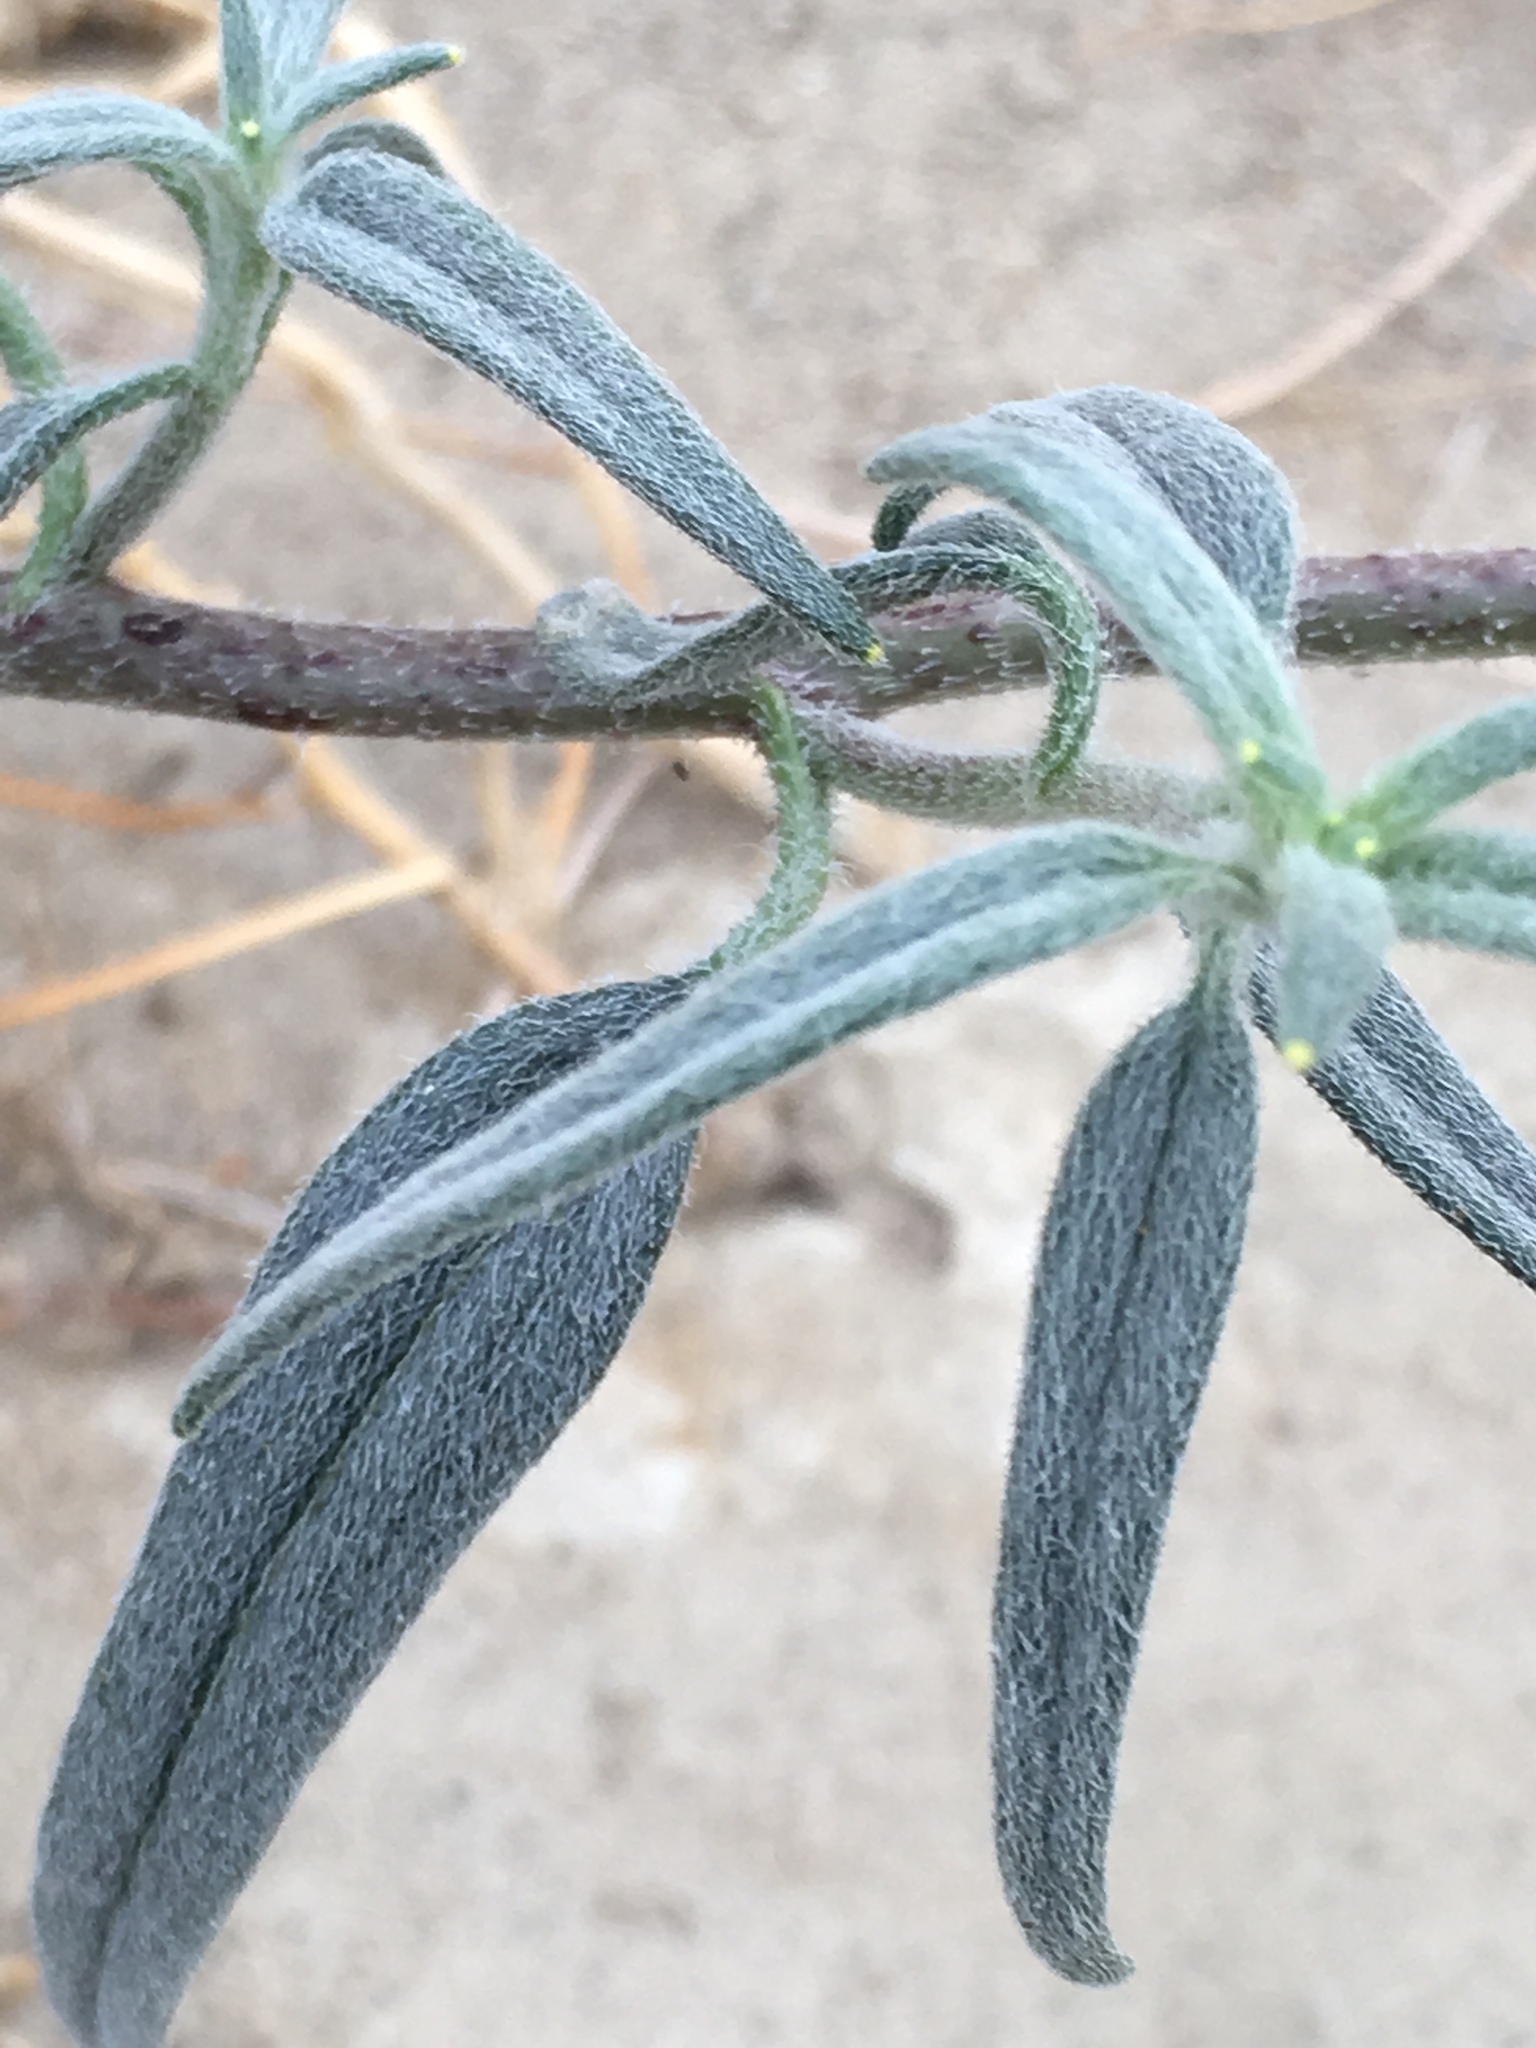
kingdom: Plantae
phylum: Tracheophyta
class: Magnoliopsida
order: Asterales
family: Asteraceae
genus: Palafoxia
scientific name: Palafoxia arida
